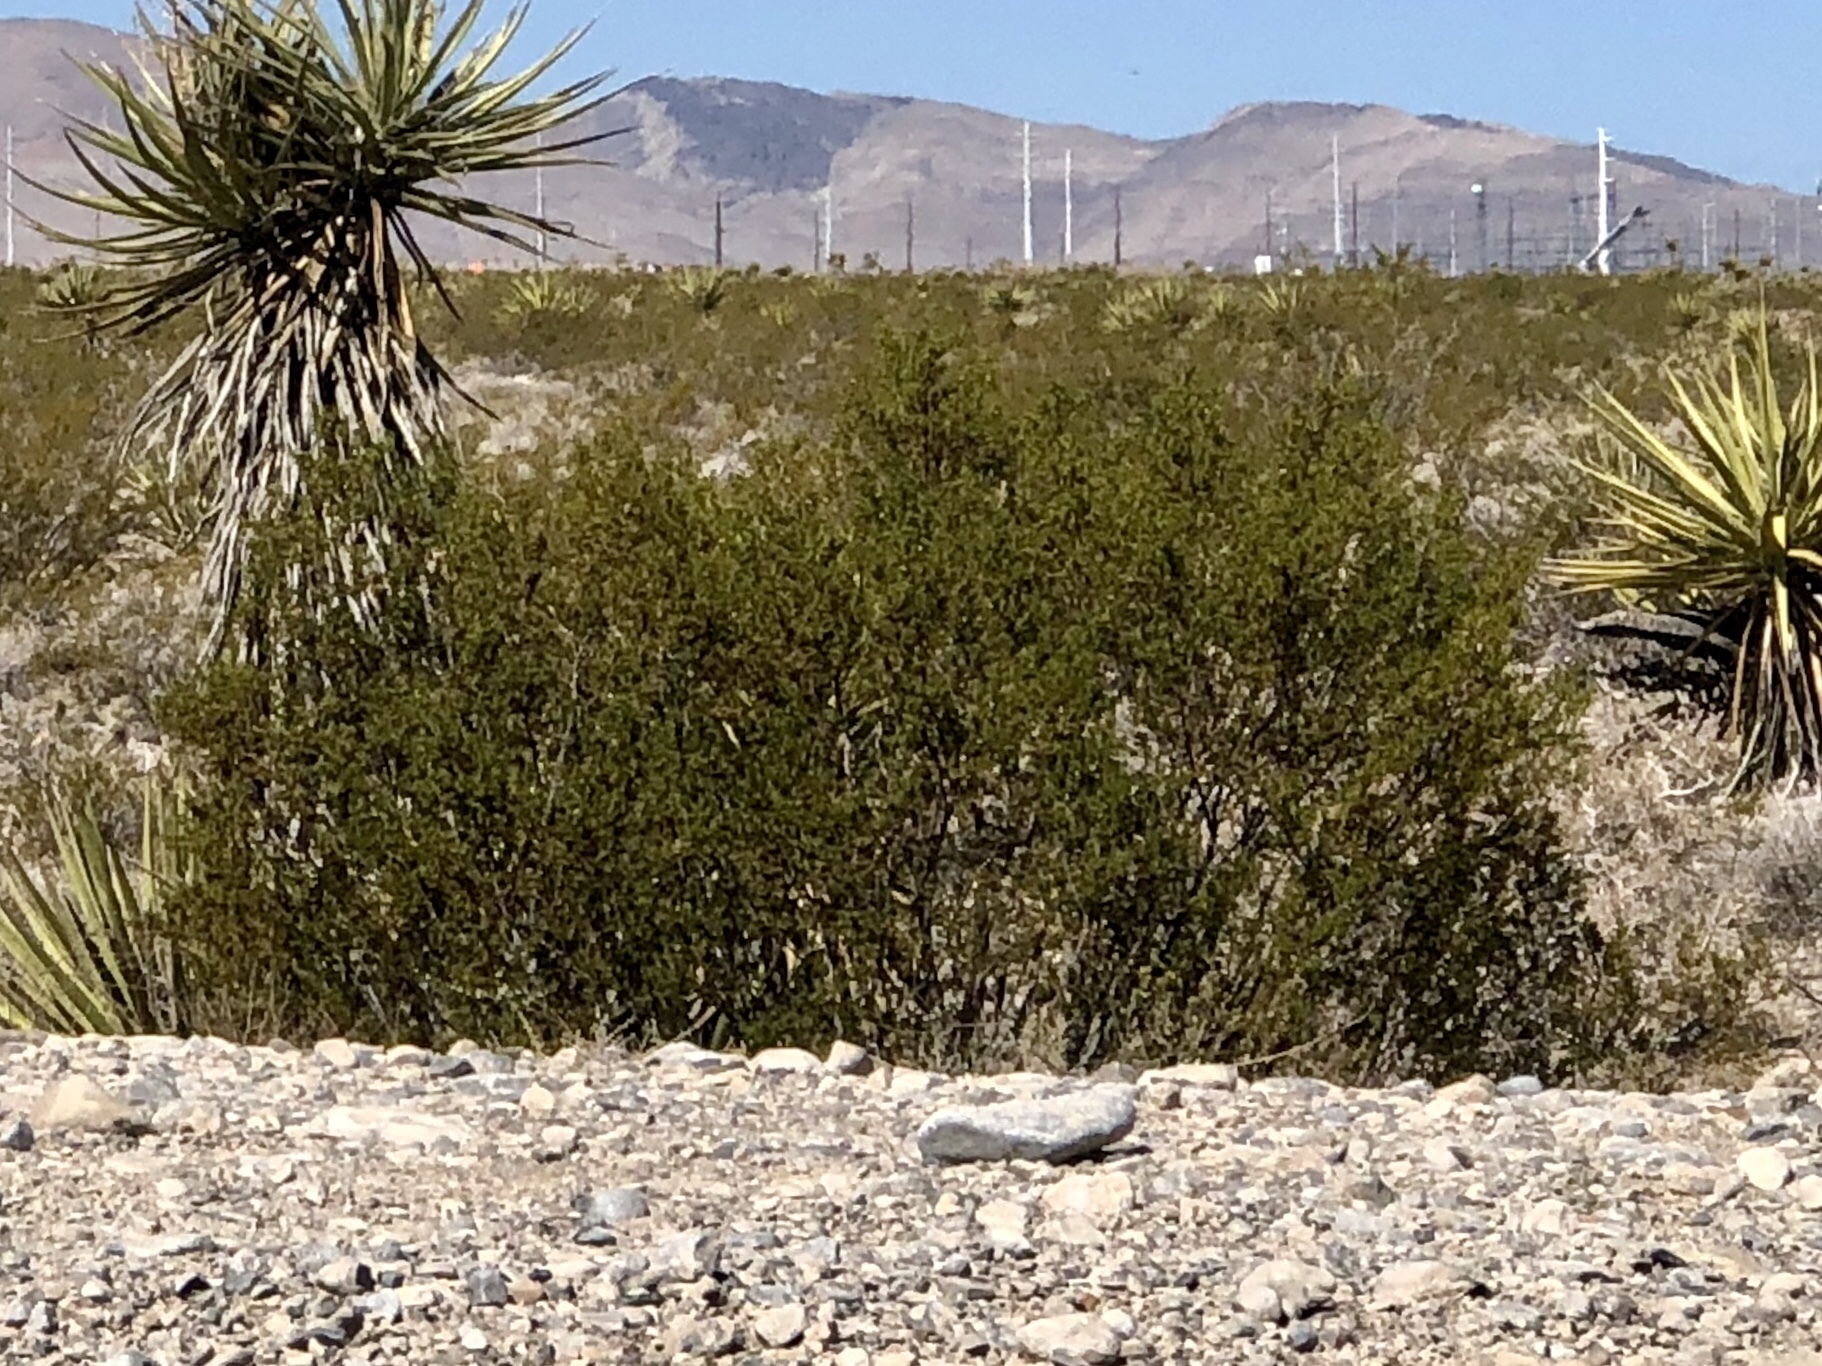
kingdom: Plantae
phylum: Tracheophyta
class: Magnoliopsida
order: Zygophyllales
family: Zygophyllaceae
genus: Larrea
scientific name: Larrea tridentata
